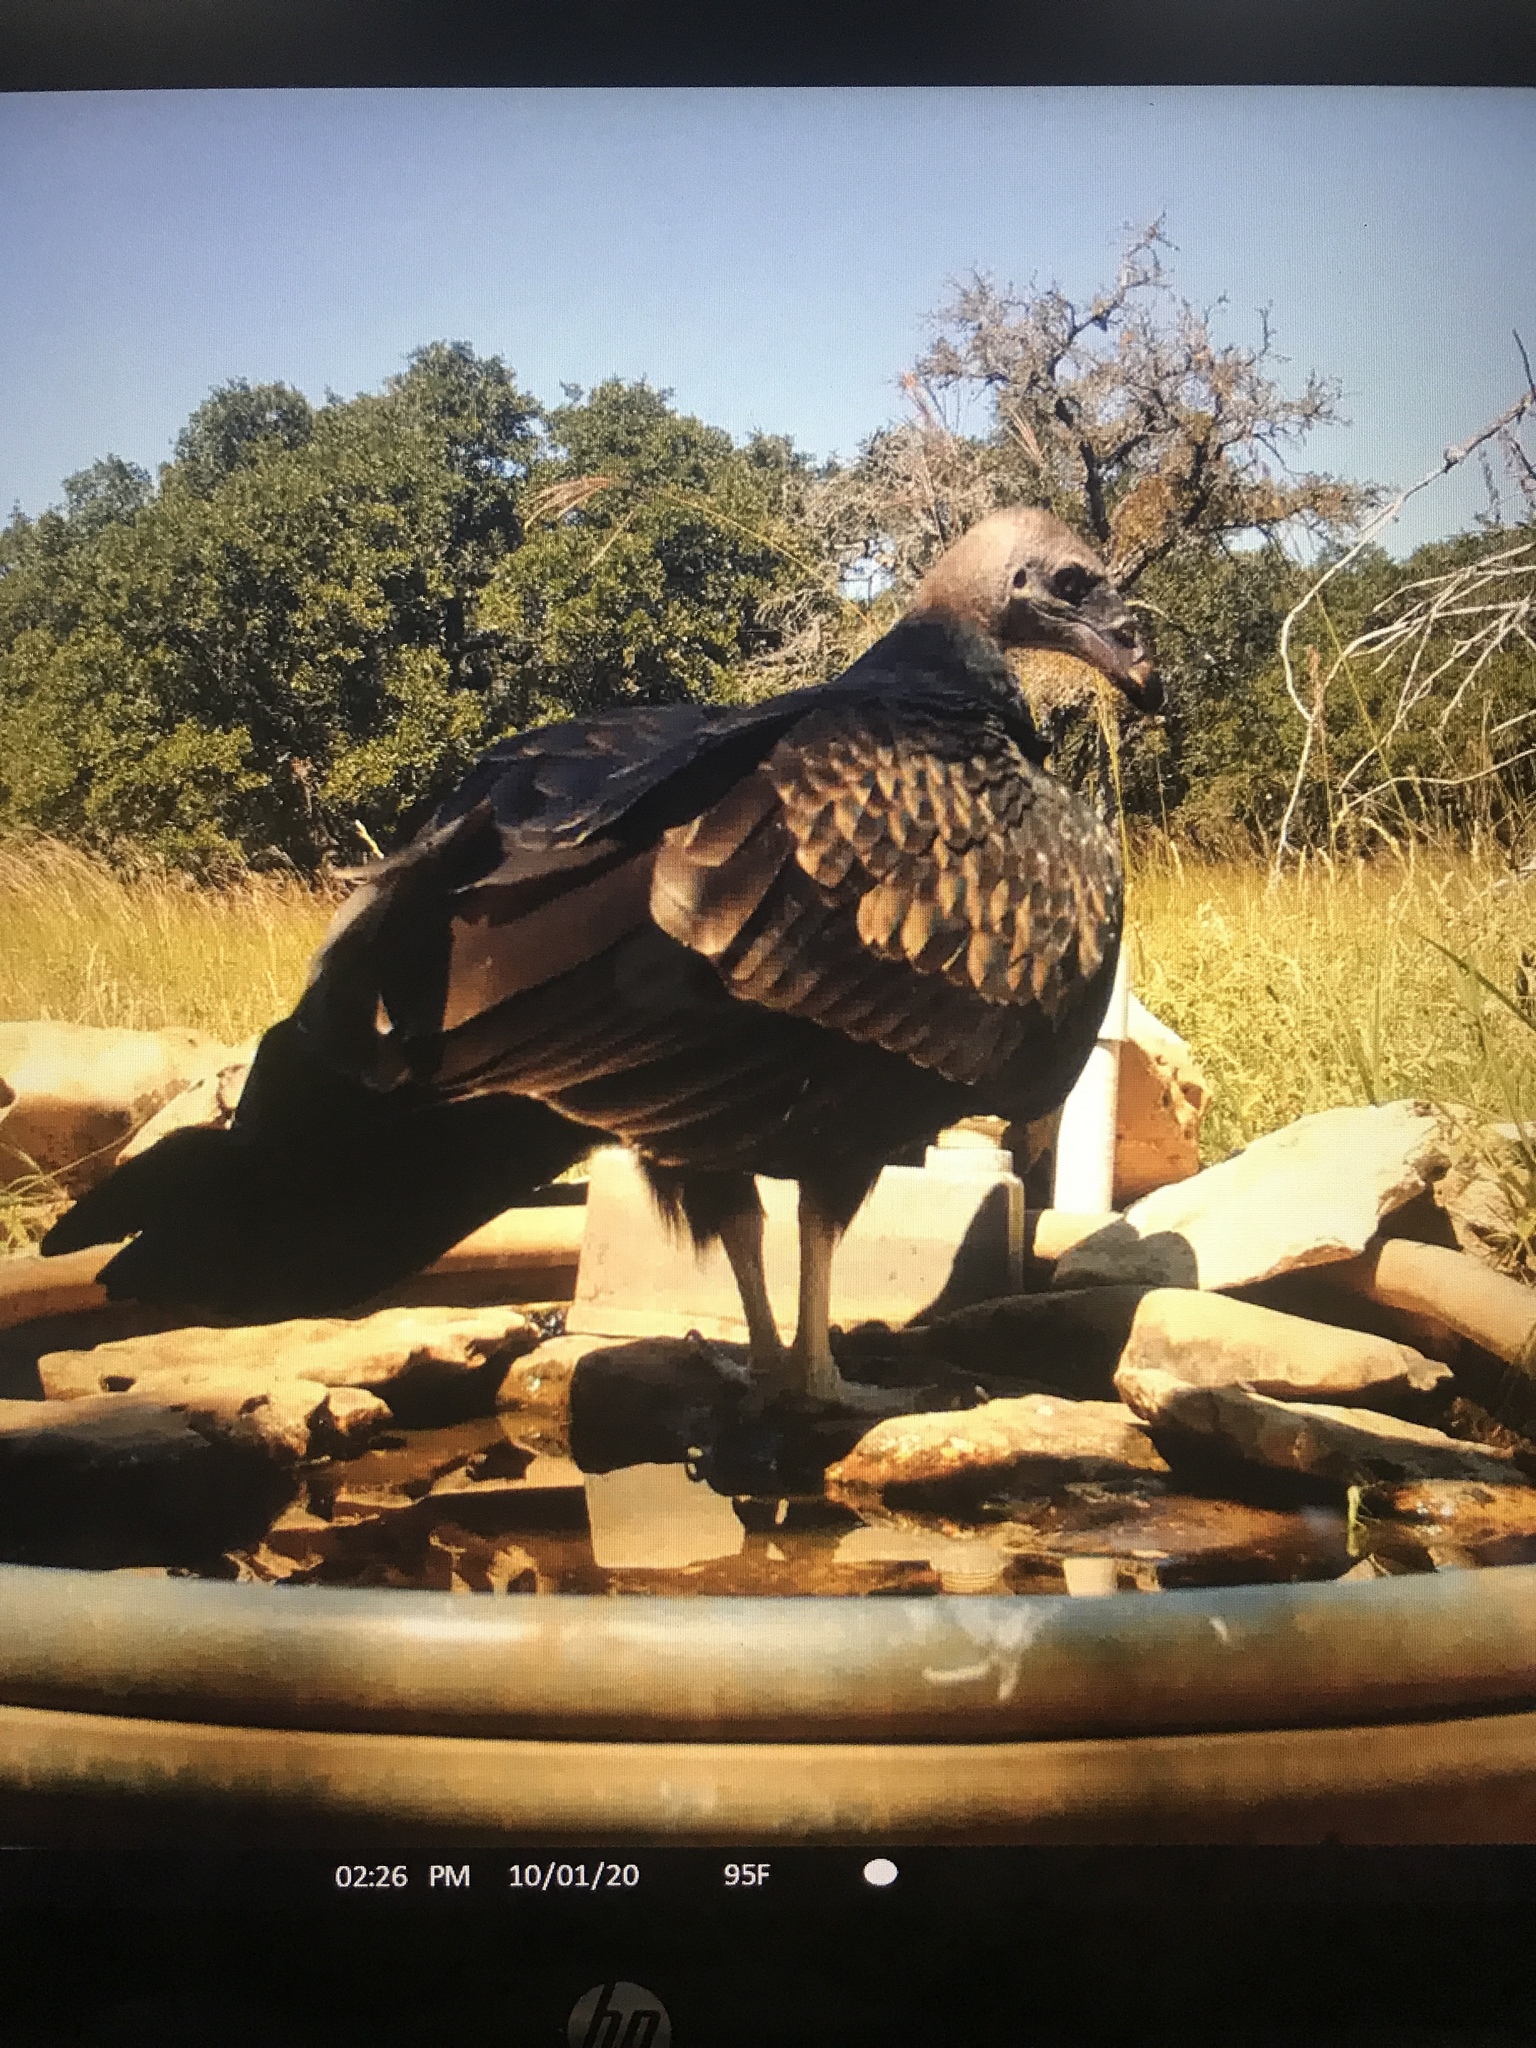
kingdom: Animalia
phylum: Chordata
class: Aves
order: Accipitriformes
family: Cathartidae
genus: Cathartes
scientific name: Cathartes aura
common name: Turkey vulture
